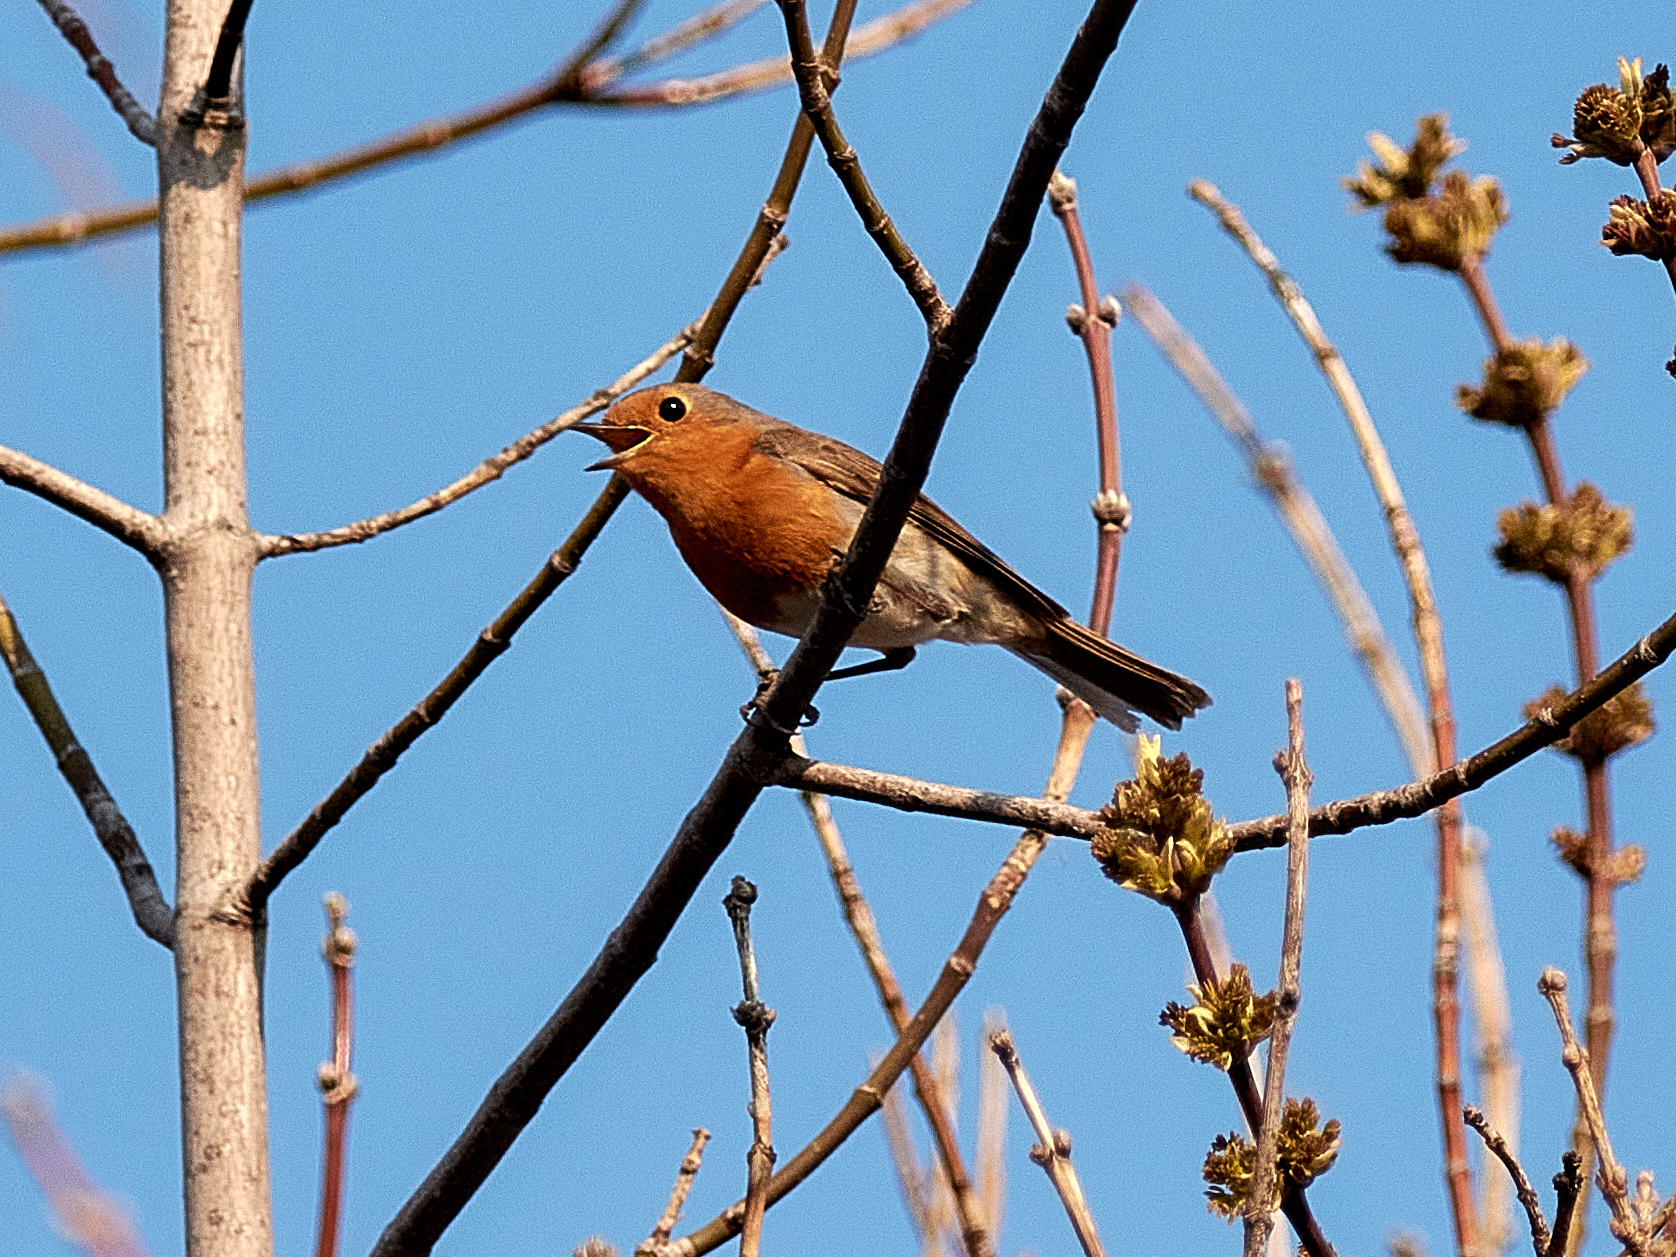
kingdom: Animalia
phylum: Chordata
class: Aves
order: Passeriformes
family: Muscicapidae
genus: Erithacus
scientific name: Erithacus rubecula
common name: European robin
